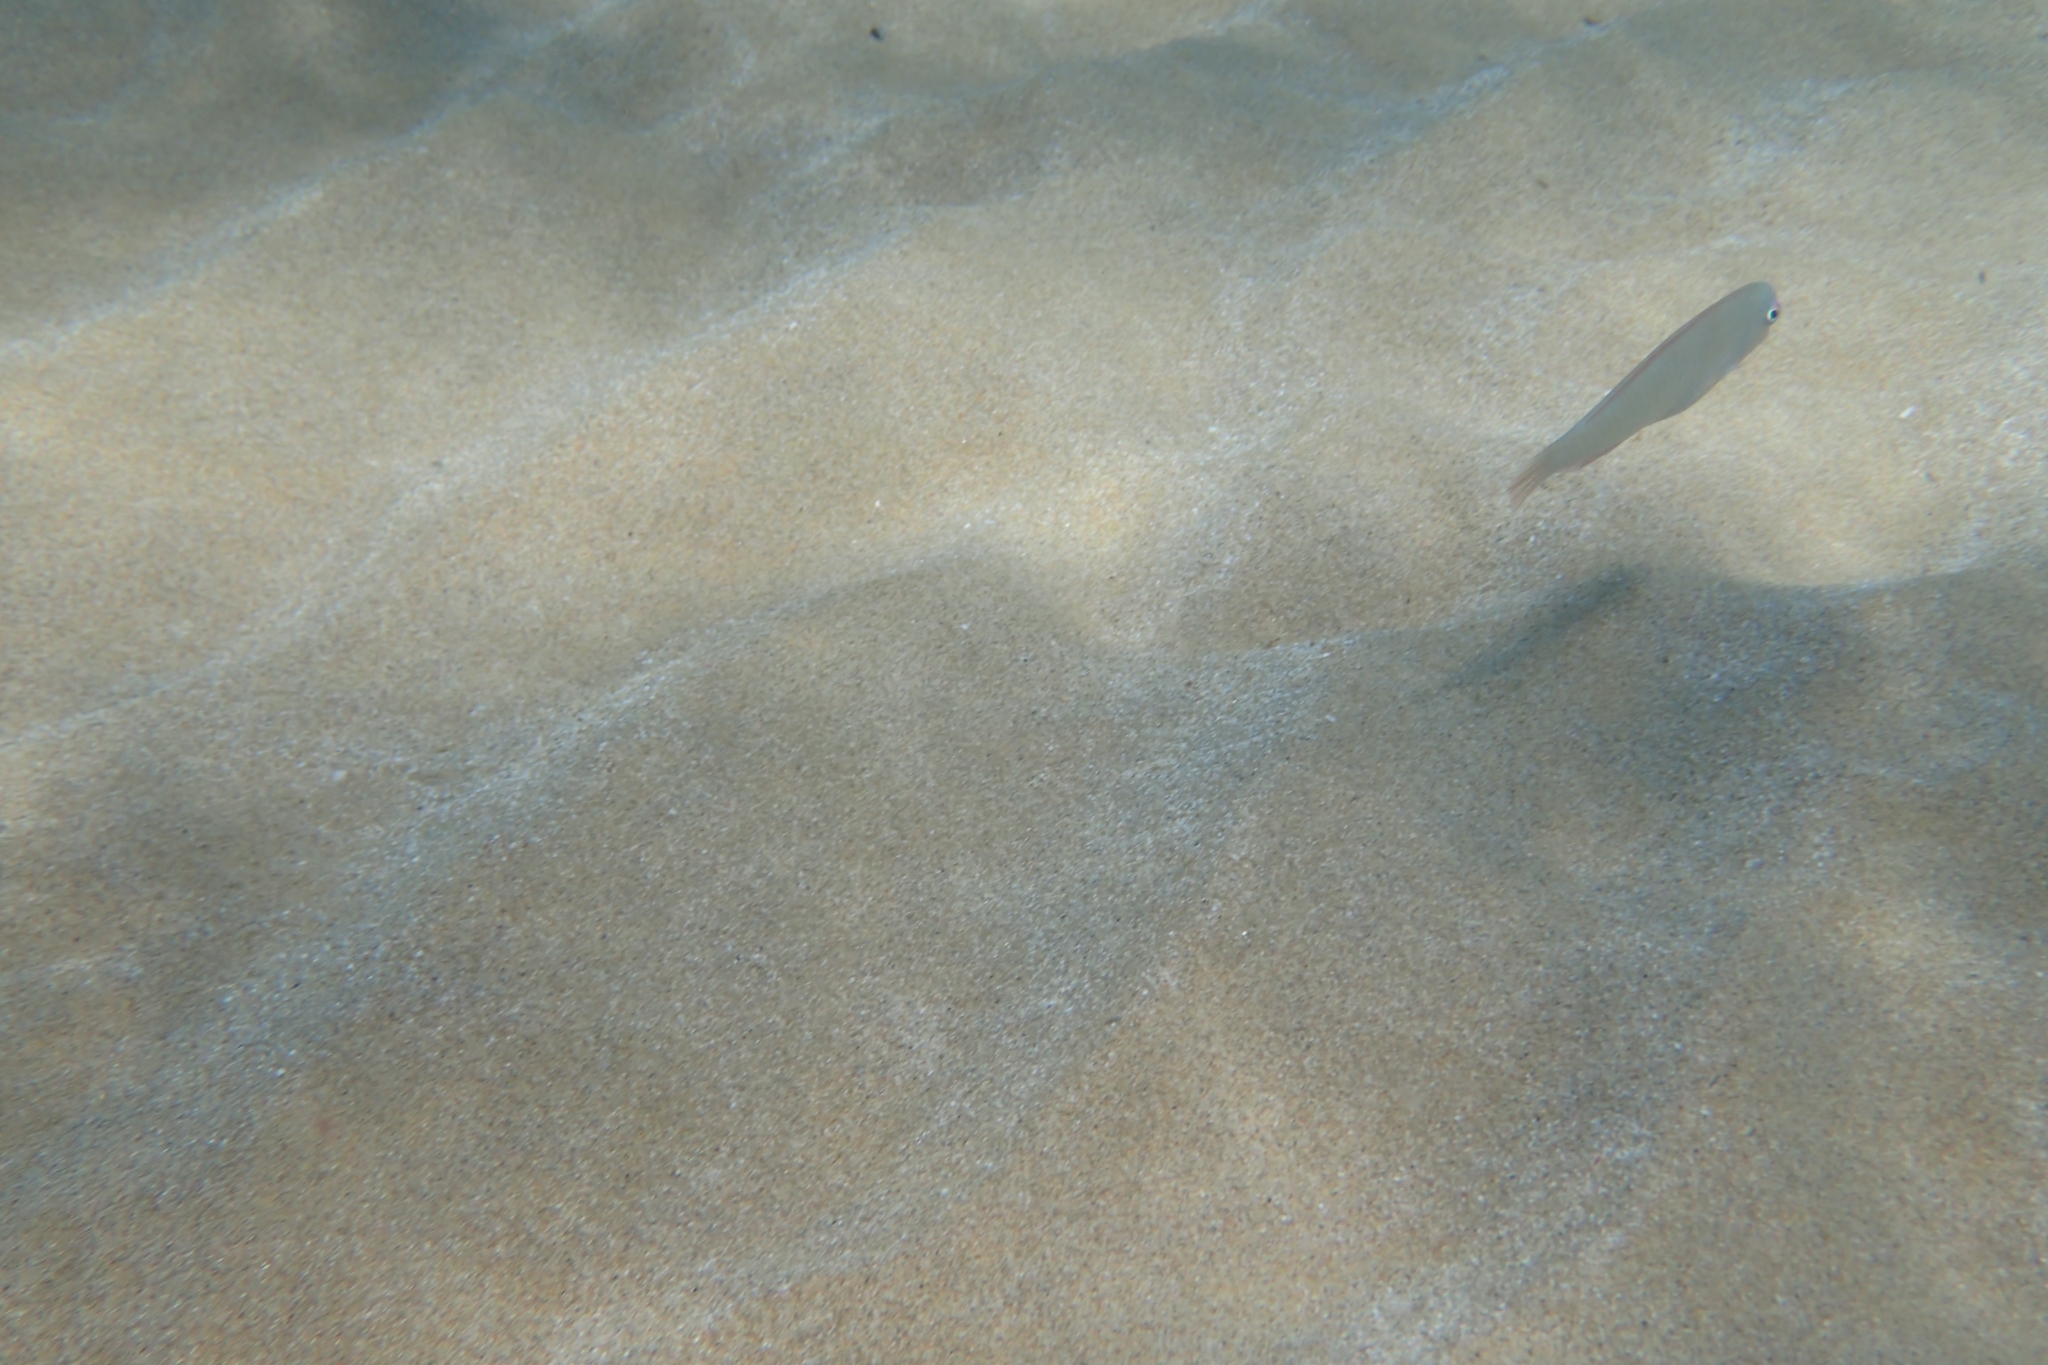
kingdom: Animalia
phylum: Chordata
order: Perciformes
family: Labridae
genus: Xyrichtys
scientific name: Xyrichtys novacula
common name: Pearly razorfish
